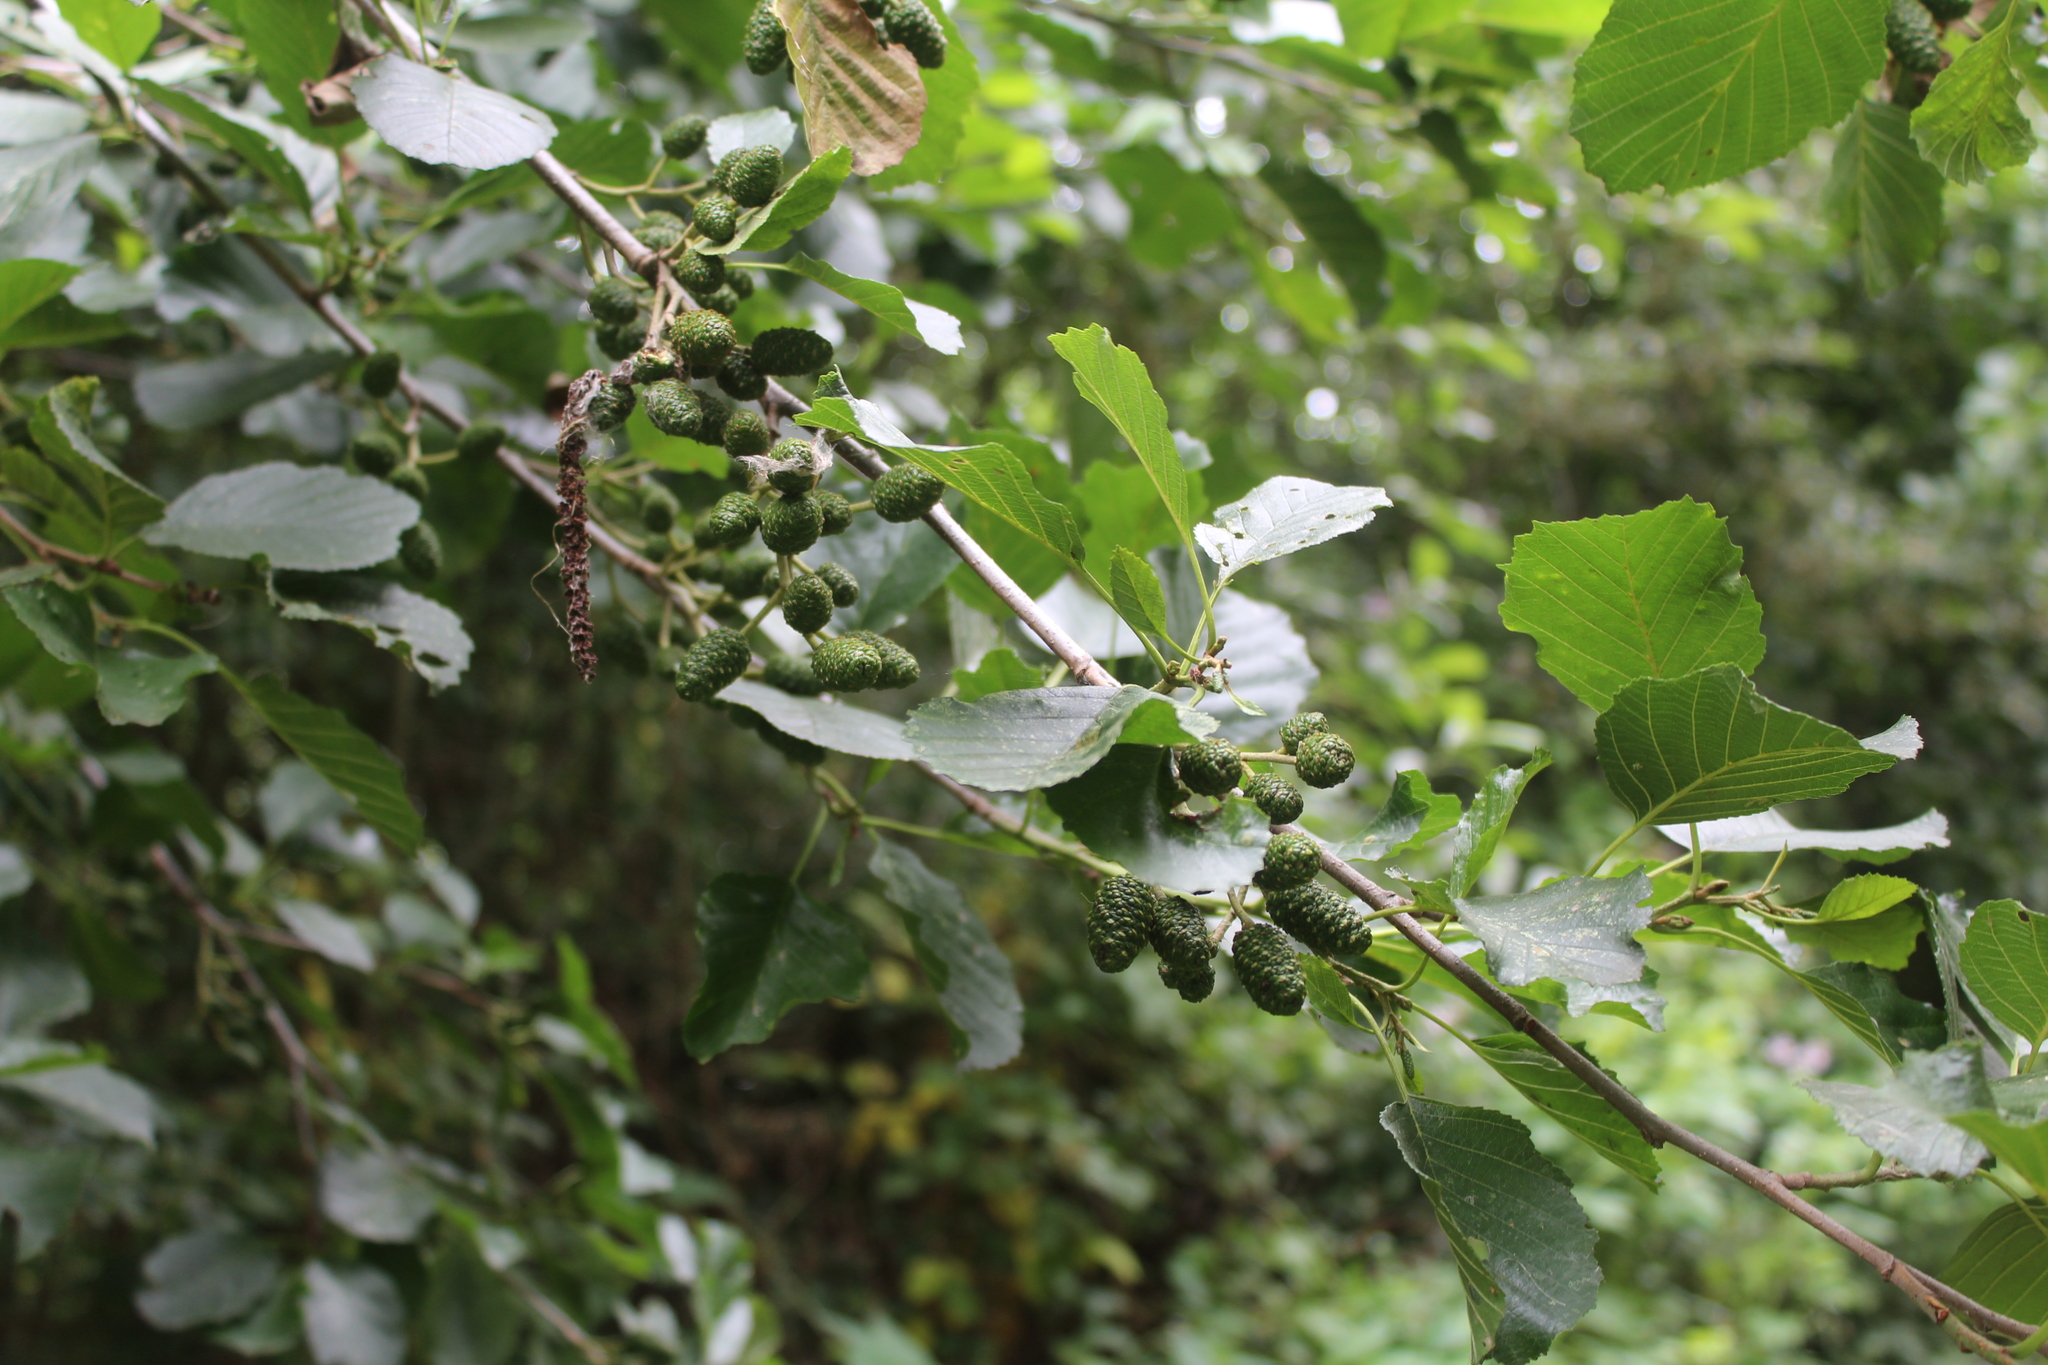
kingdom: Plantae
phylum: Tracheophyta
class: Magnoliopsida
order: Fagales
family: Betulaceae
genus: Alnus
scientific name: Alnus glutinosa
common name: Black alder
